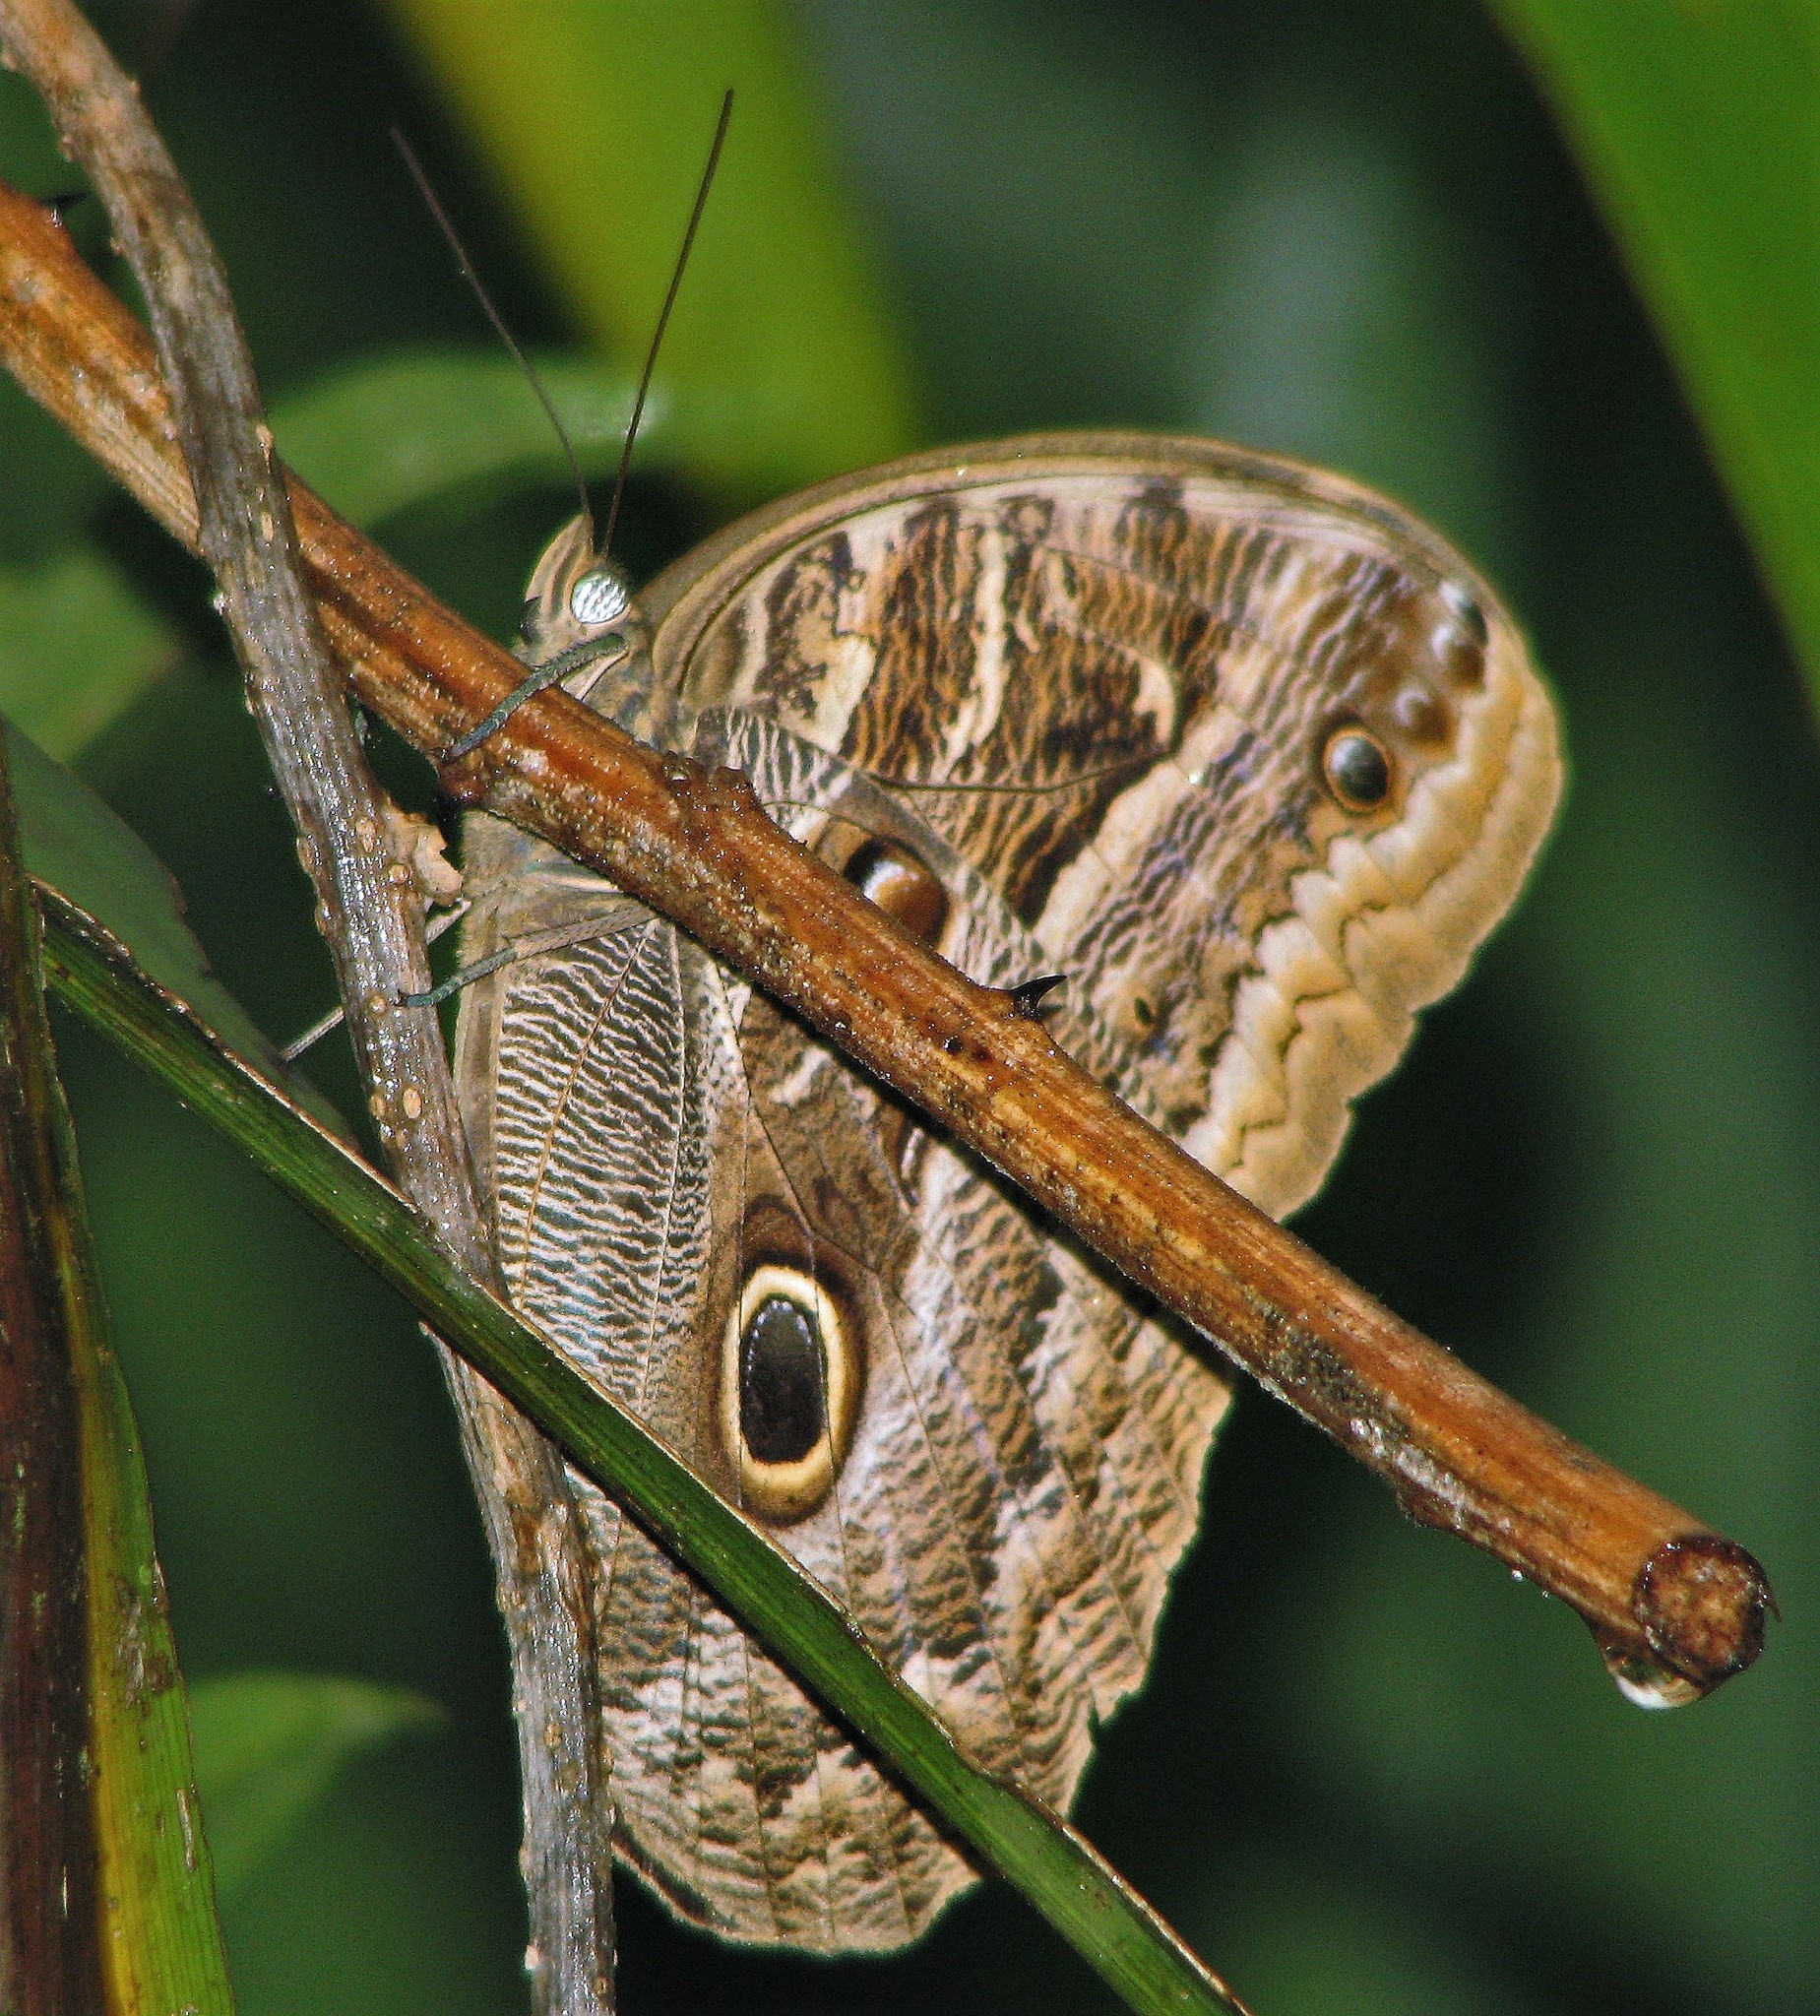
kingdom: Animalia
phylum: Arthropoda
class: Insecta
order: Lepidoptera
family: Nymphalidae
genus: Caligo
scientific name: Caligo illioneus
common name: Dusky owl-butterfly
